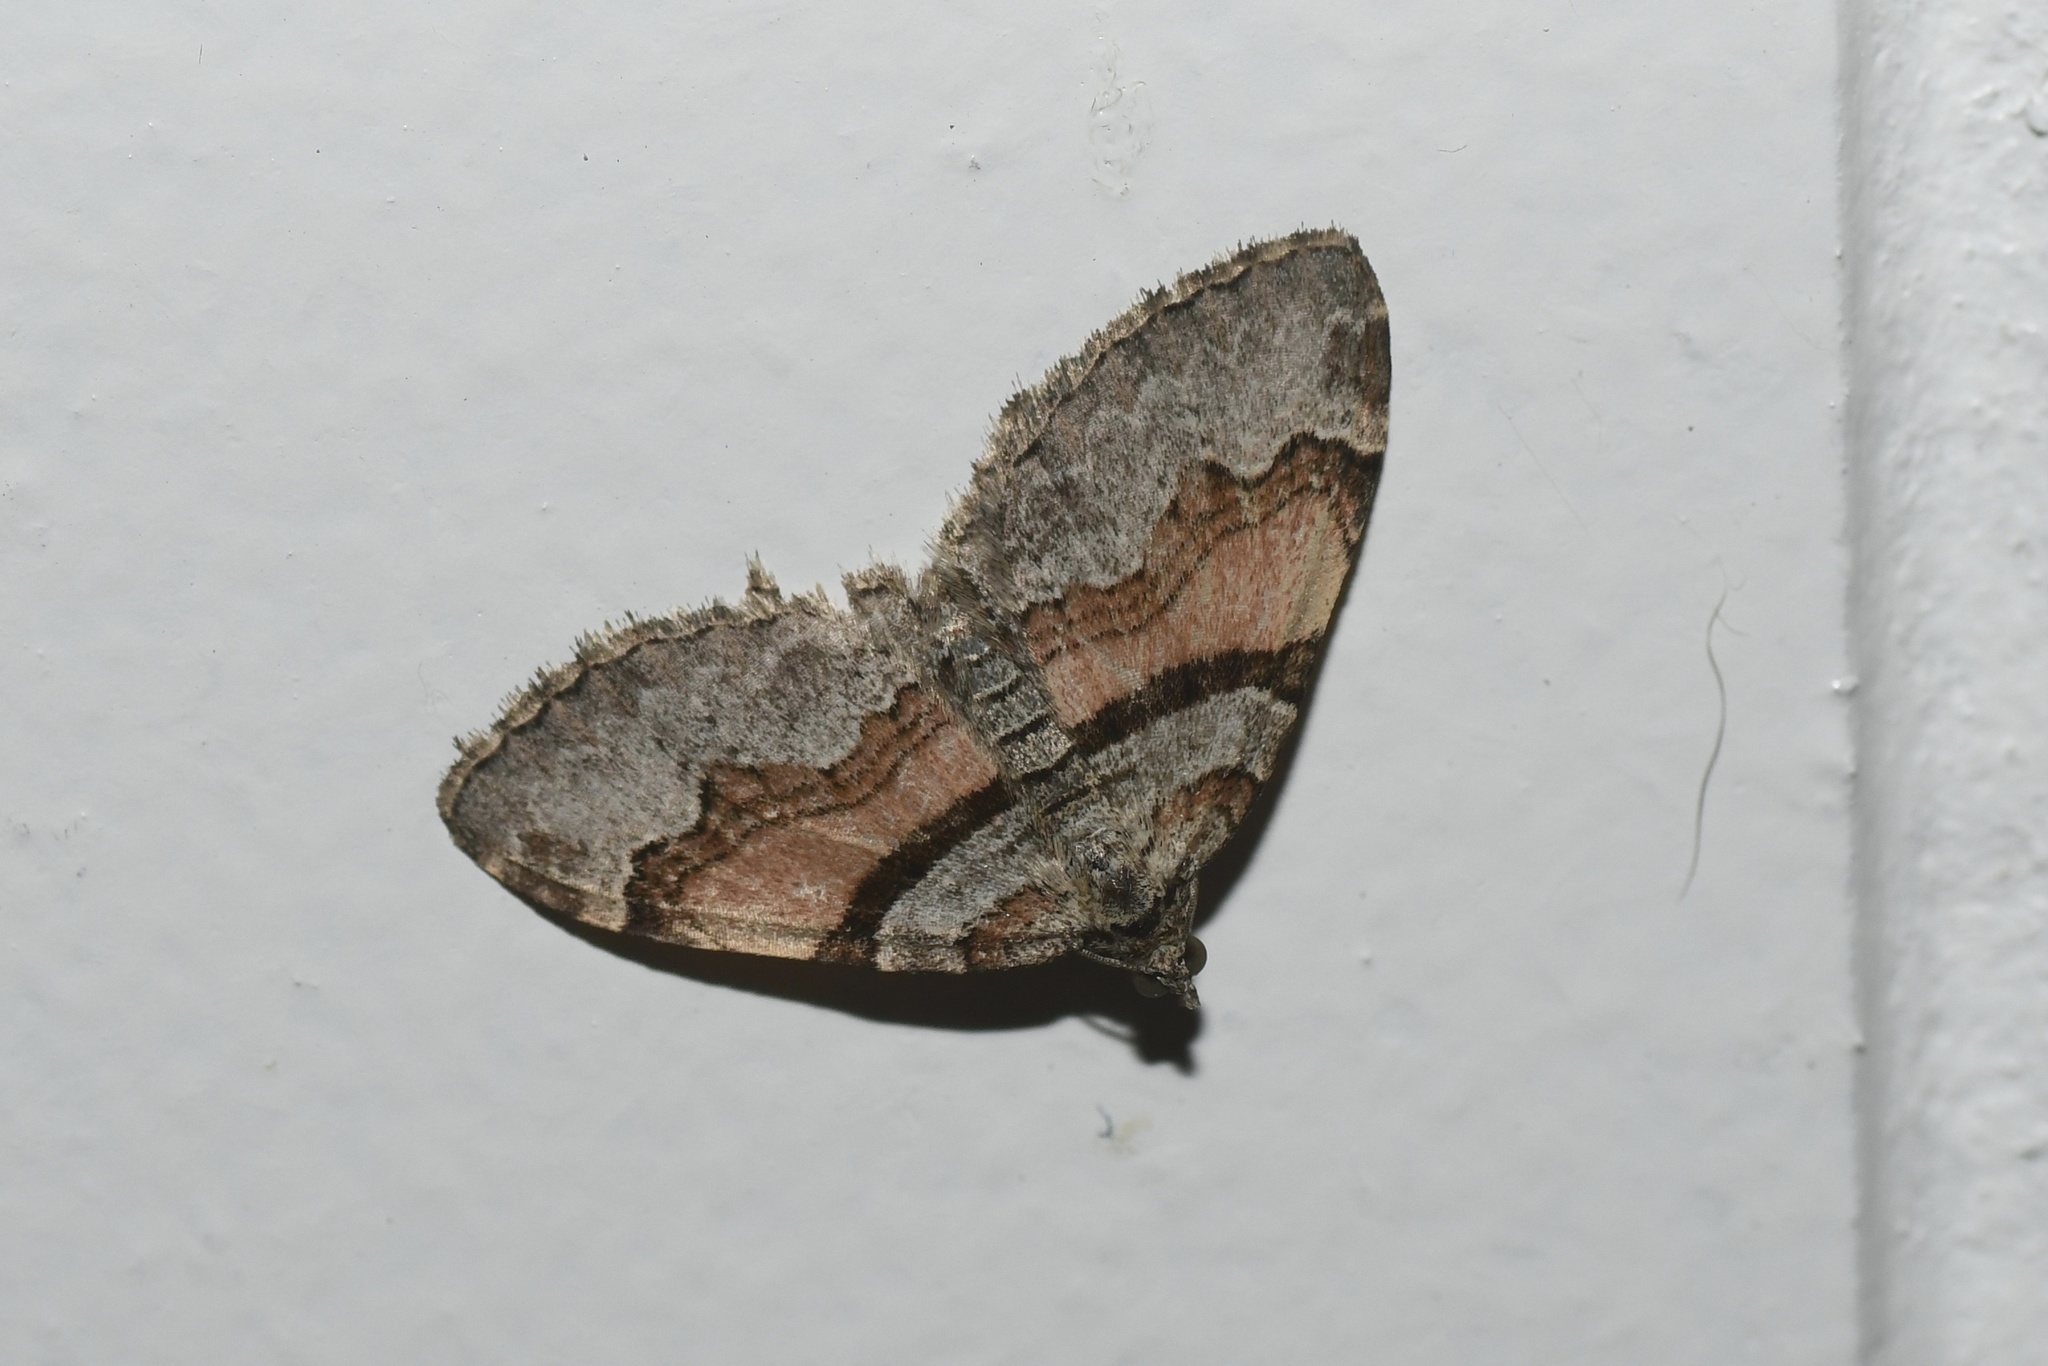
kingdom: Animalia
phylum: Arthropoda
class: Insecta
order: Lepidoptera
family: Geometridae
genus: Xanthorhoe
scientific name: Xanthorhoe labradorensis
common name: Labrador carpet
